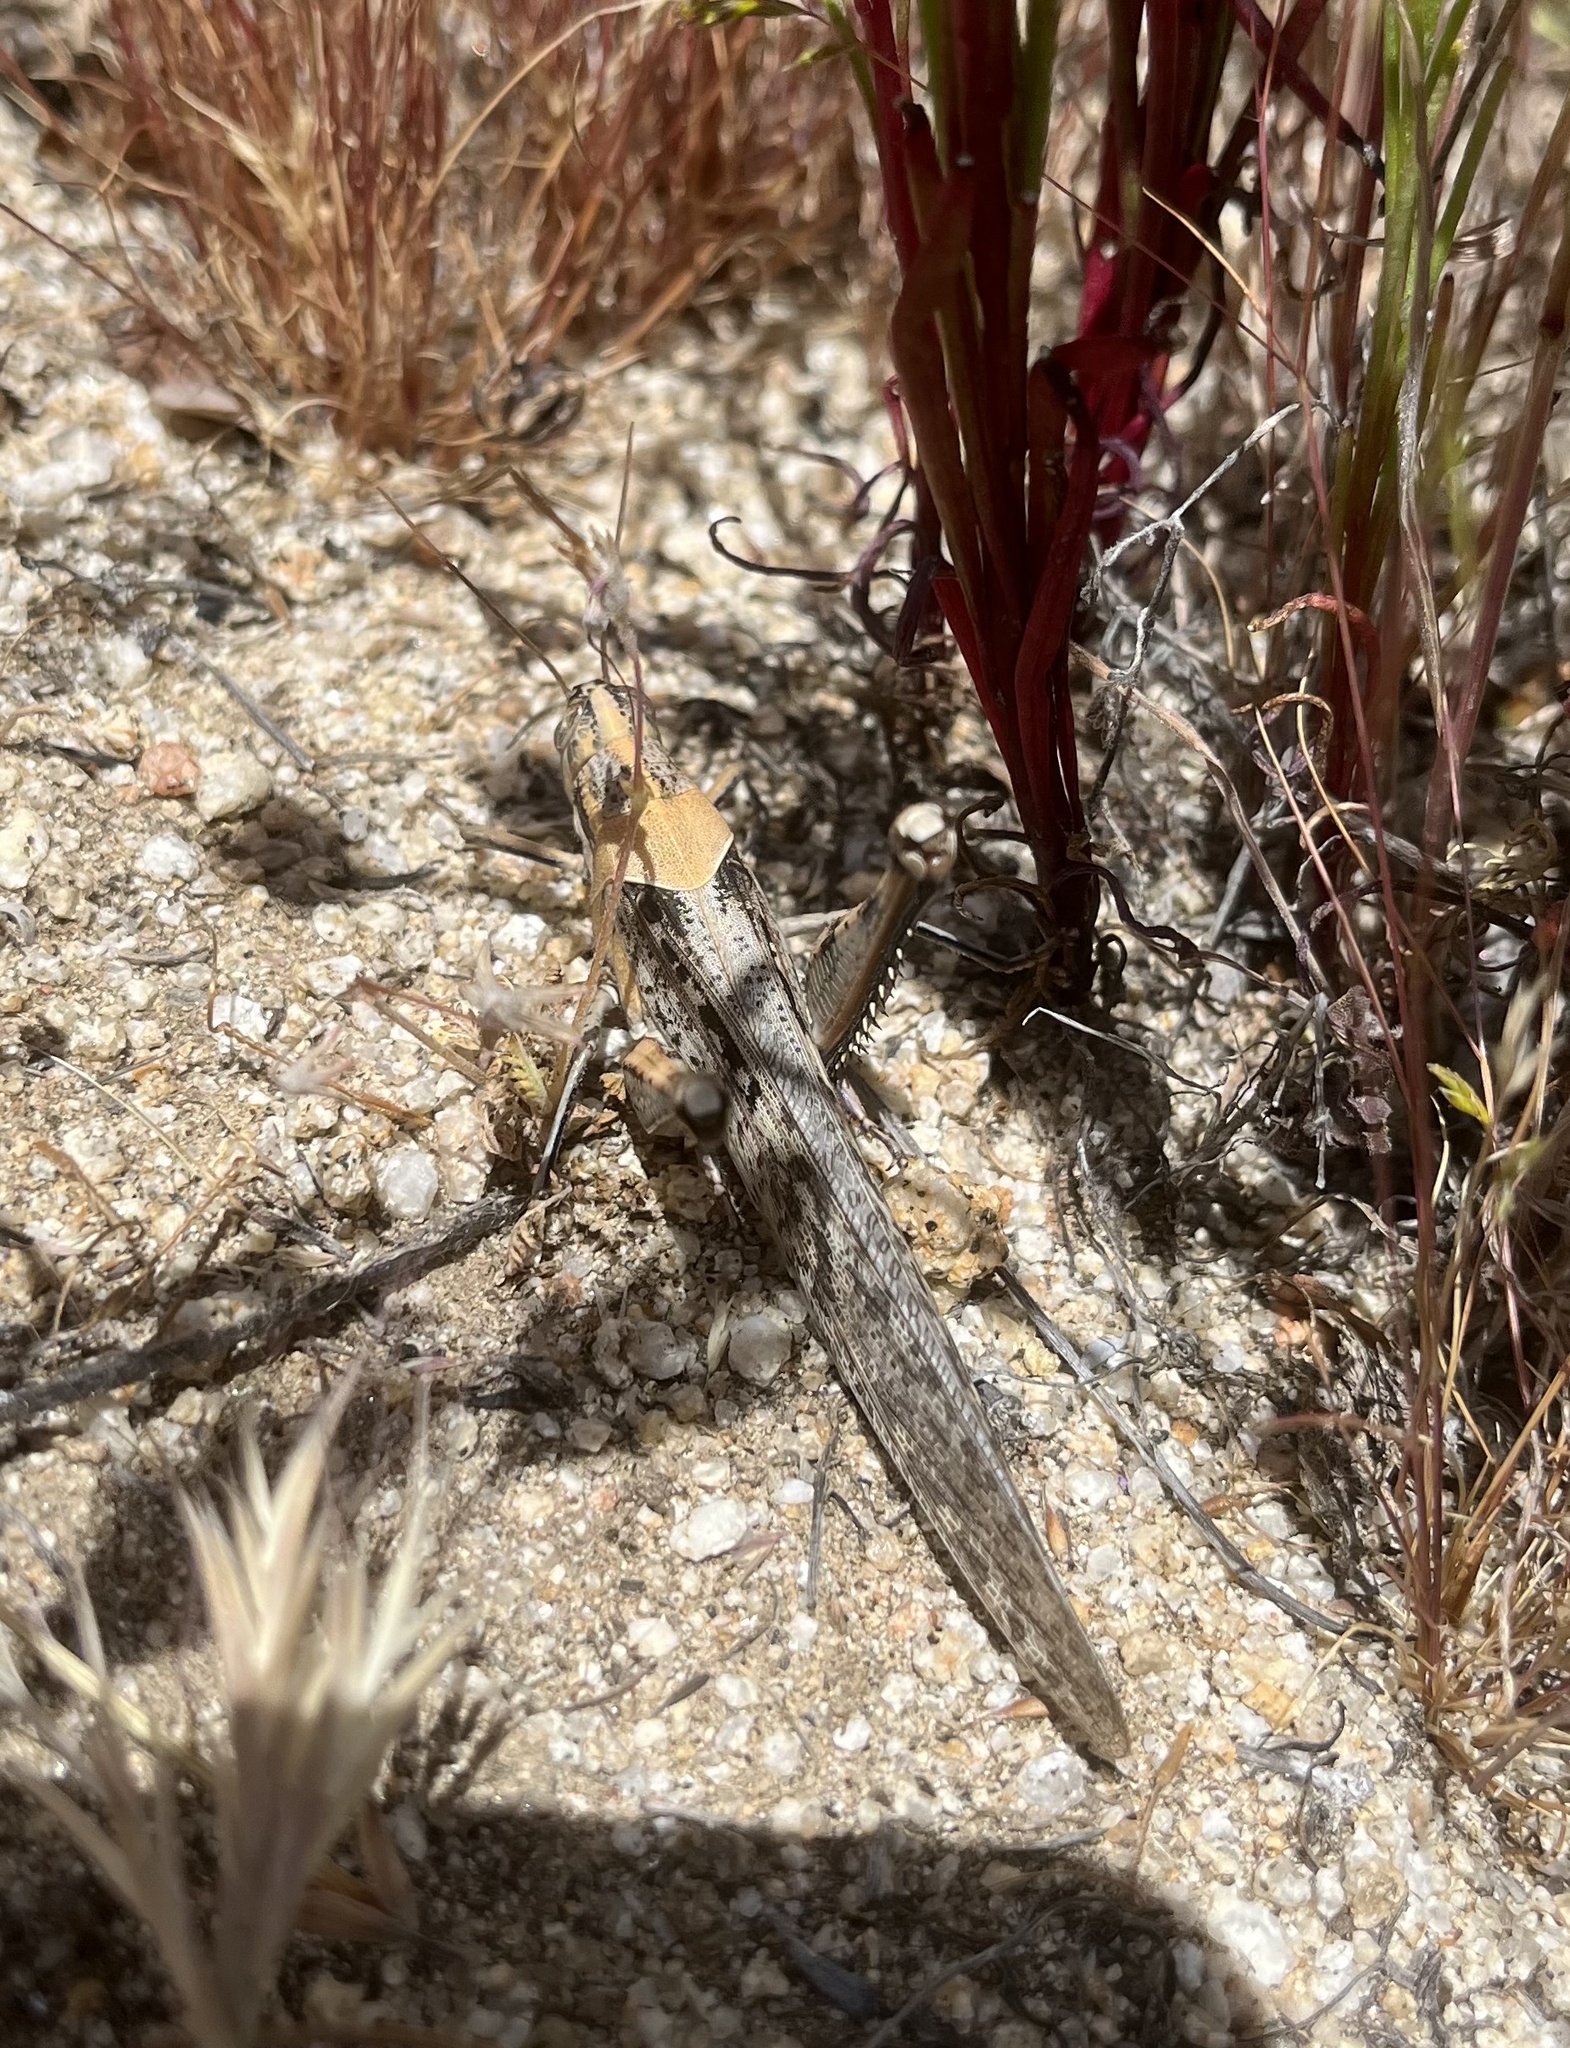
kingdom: Animalia
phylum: Arthropoda
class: Insecta
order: Orthoptera
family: Acrididae
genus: Schistocerca
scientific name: Schistocerca nitens
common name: Vagrant grasshopper
